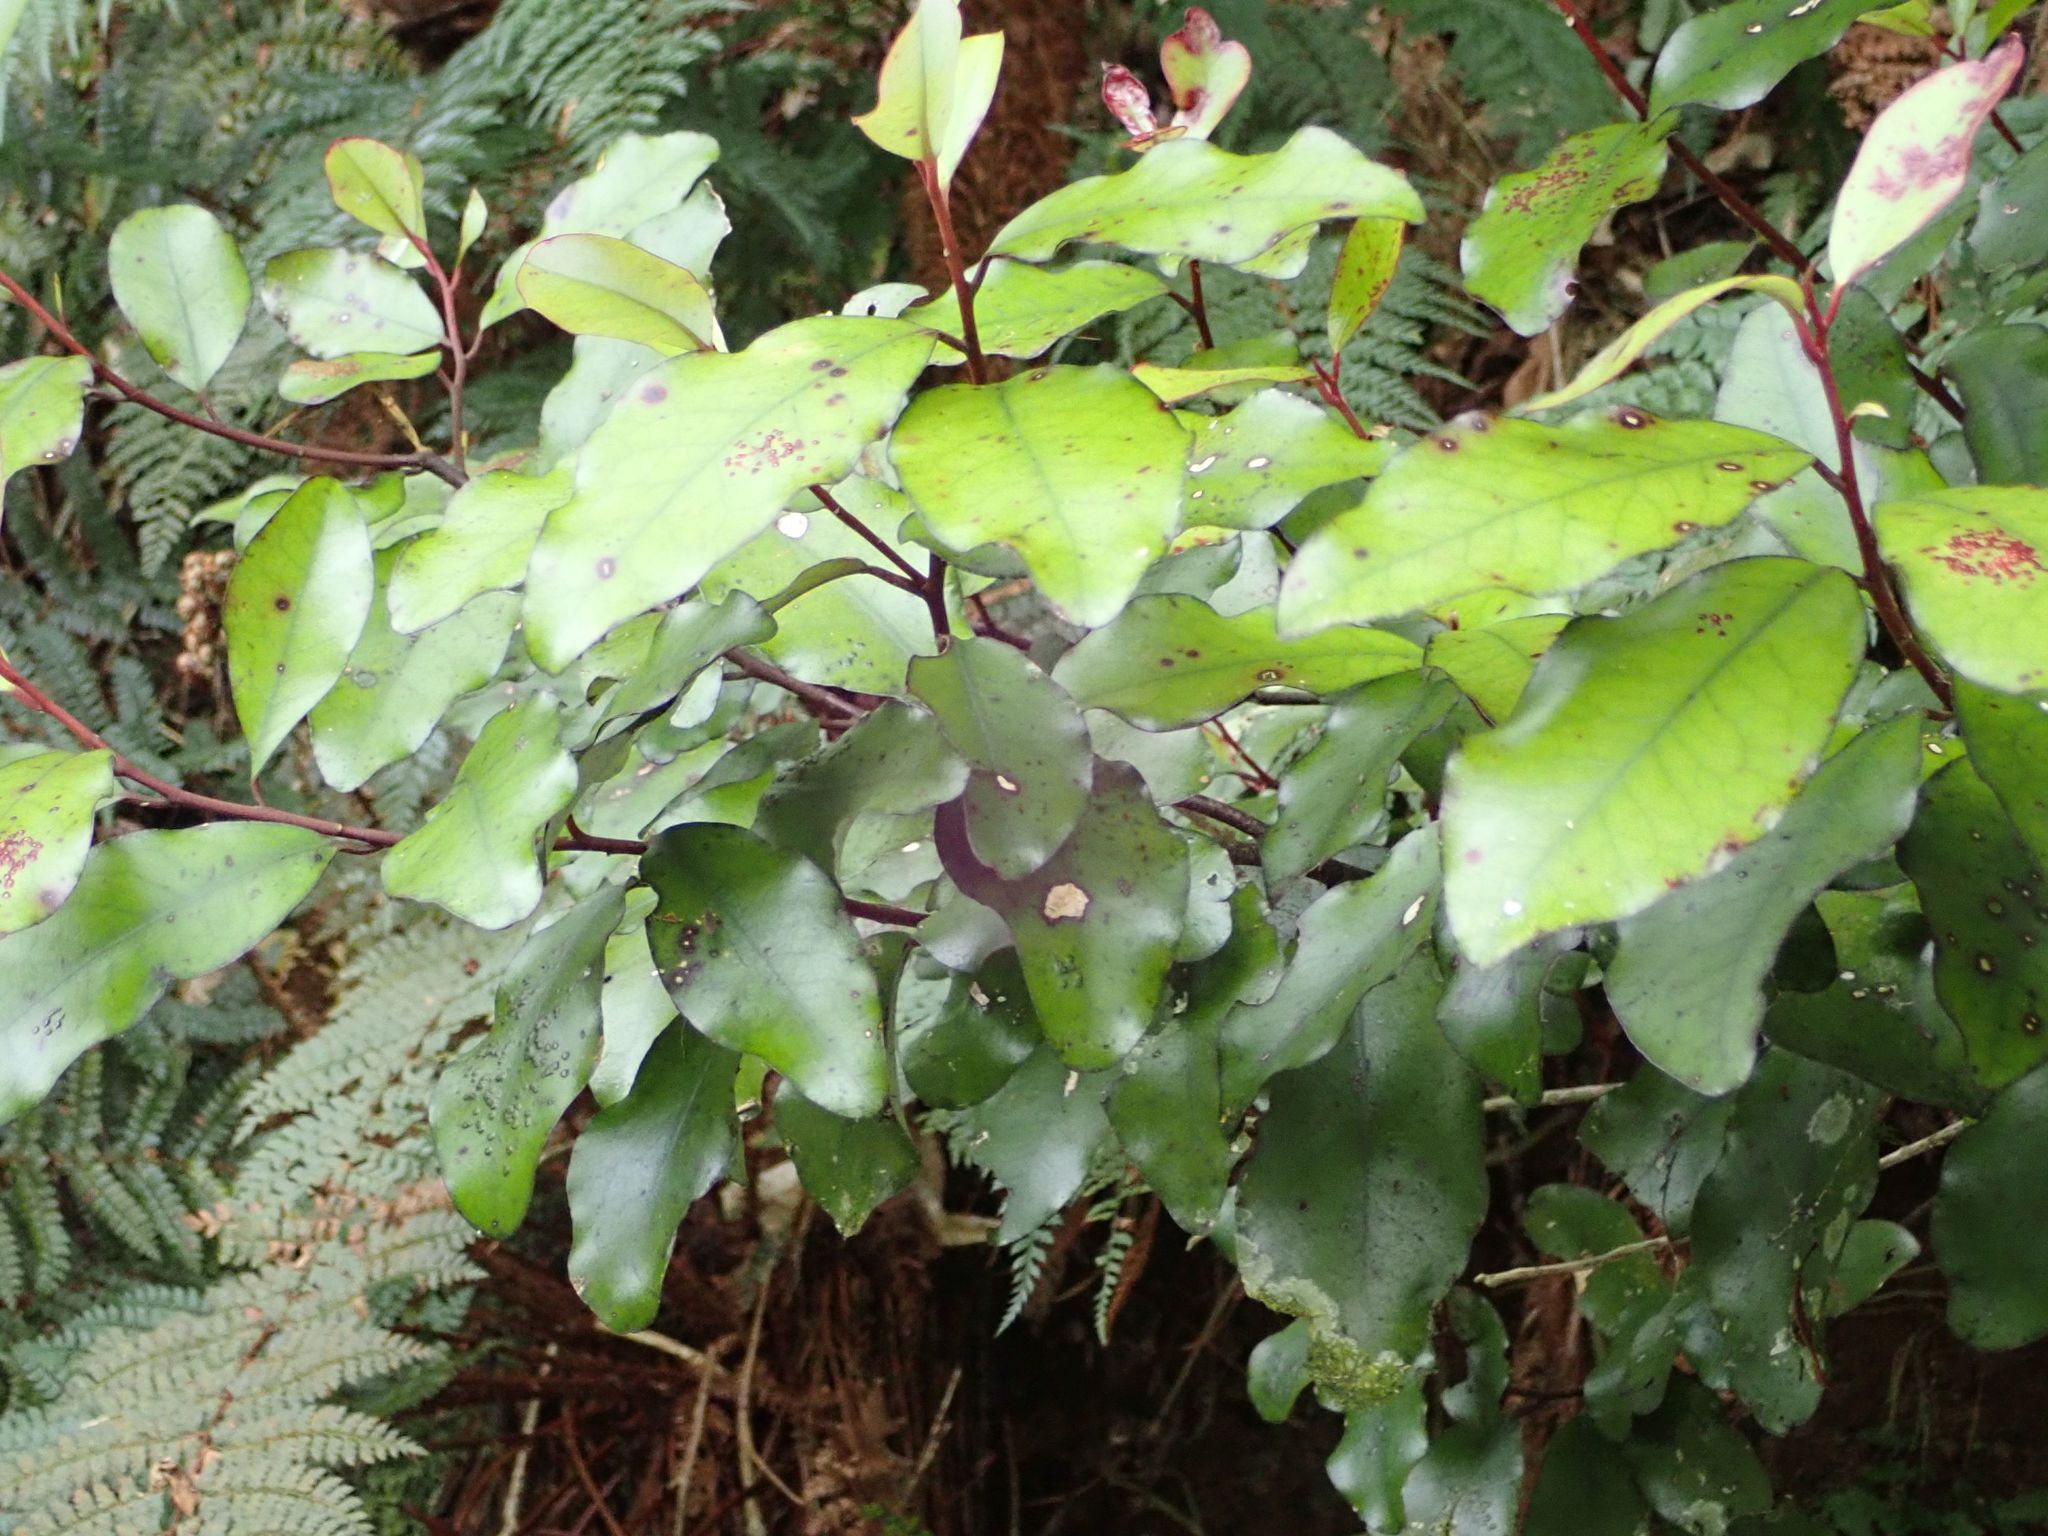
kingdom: Plantae
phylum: Tracheophyta
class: Magnoliopsida
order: Canellales
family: Winteraceae
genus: Pseudowintera
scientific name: Pseudowintera colorata
